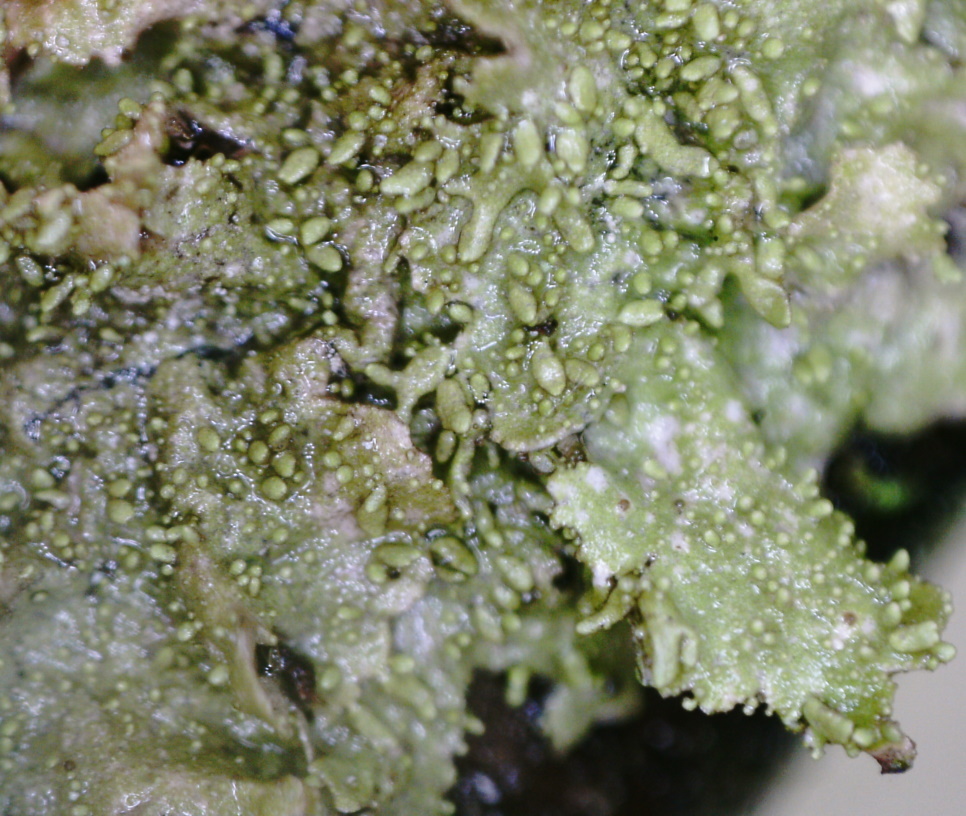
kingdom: Fungi
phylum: Ascomycota
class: Lecanoromycetes
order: Lecanorales
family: Parmeliaceae
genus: Melanohalea
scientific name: Melanohalea exasperatula
